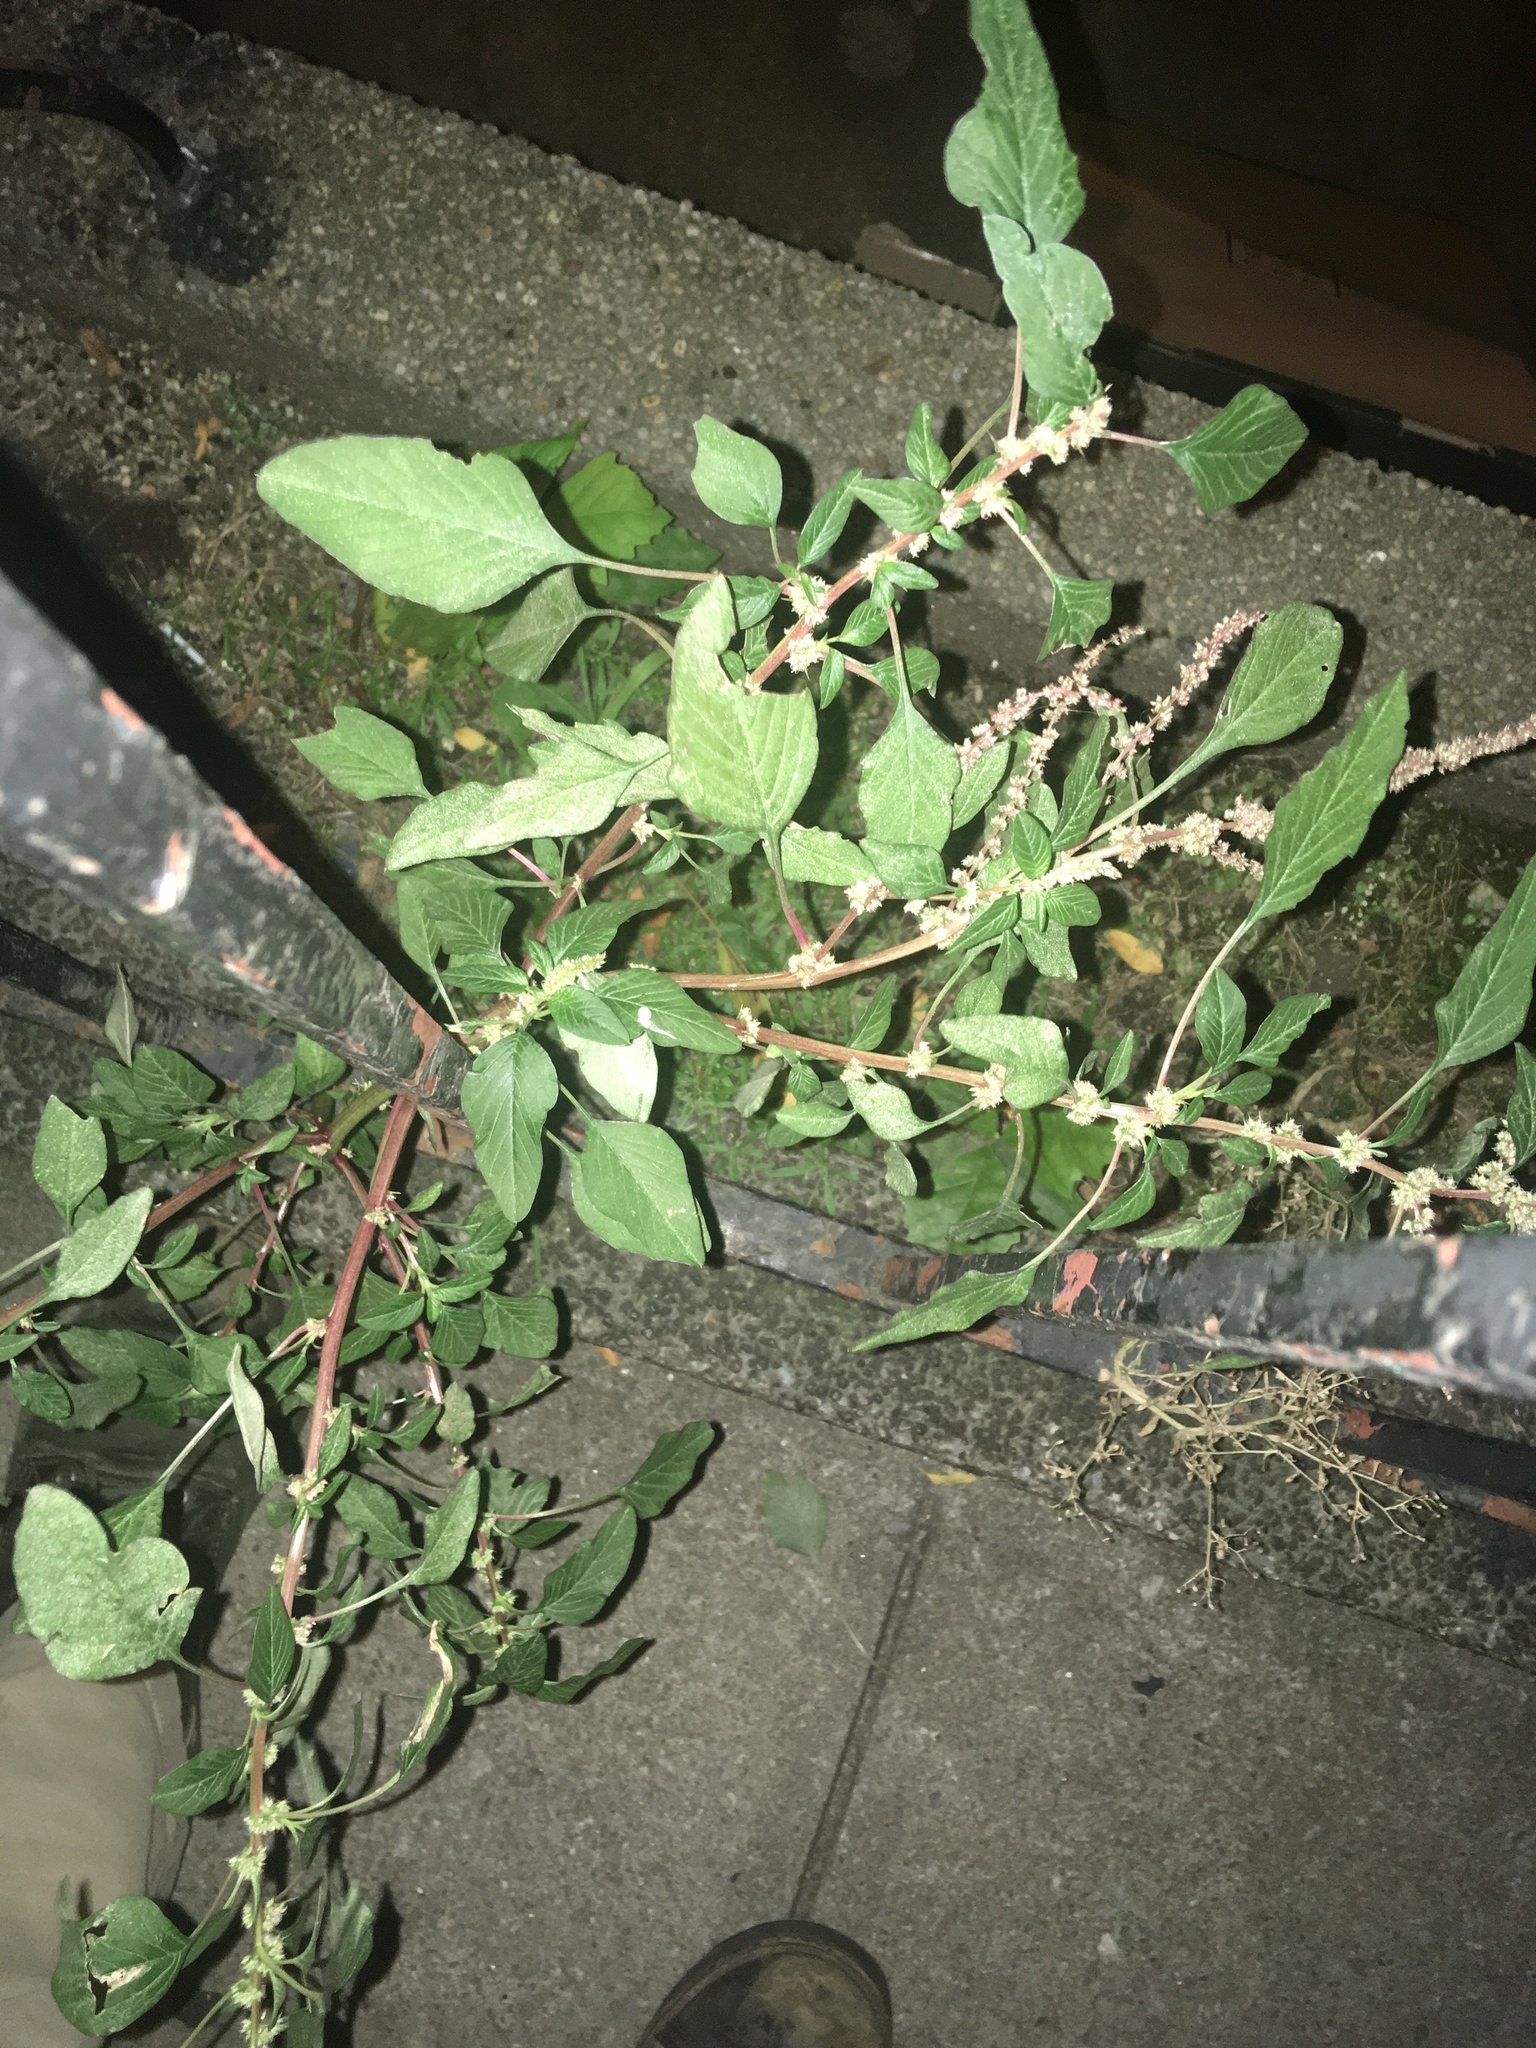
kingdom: Plantae
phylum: Tracheophyta
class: Magnoliopsida
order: Caryophyllales
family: Amaranthaceae
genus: Amaranthus
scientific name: Amaranthus spinosus
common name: Spiny amaranth
